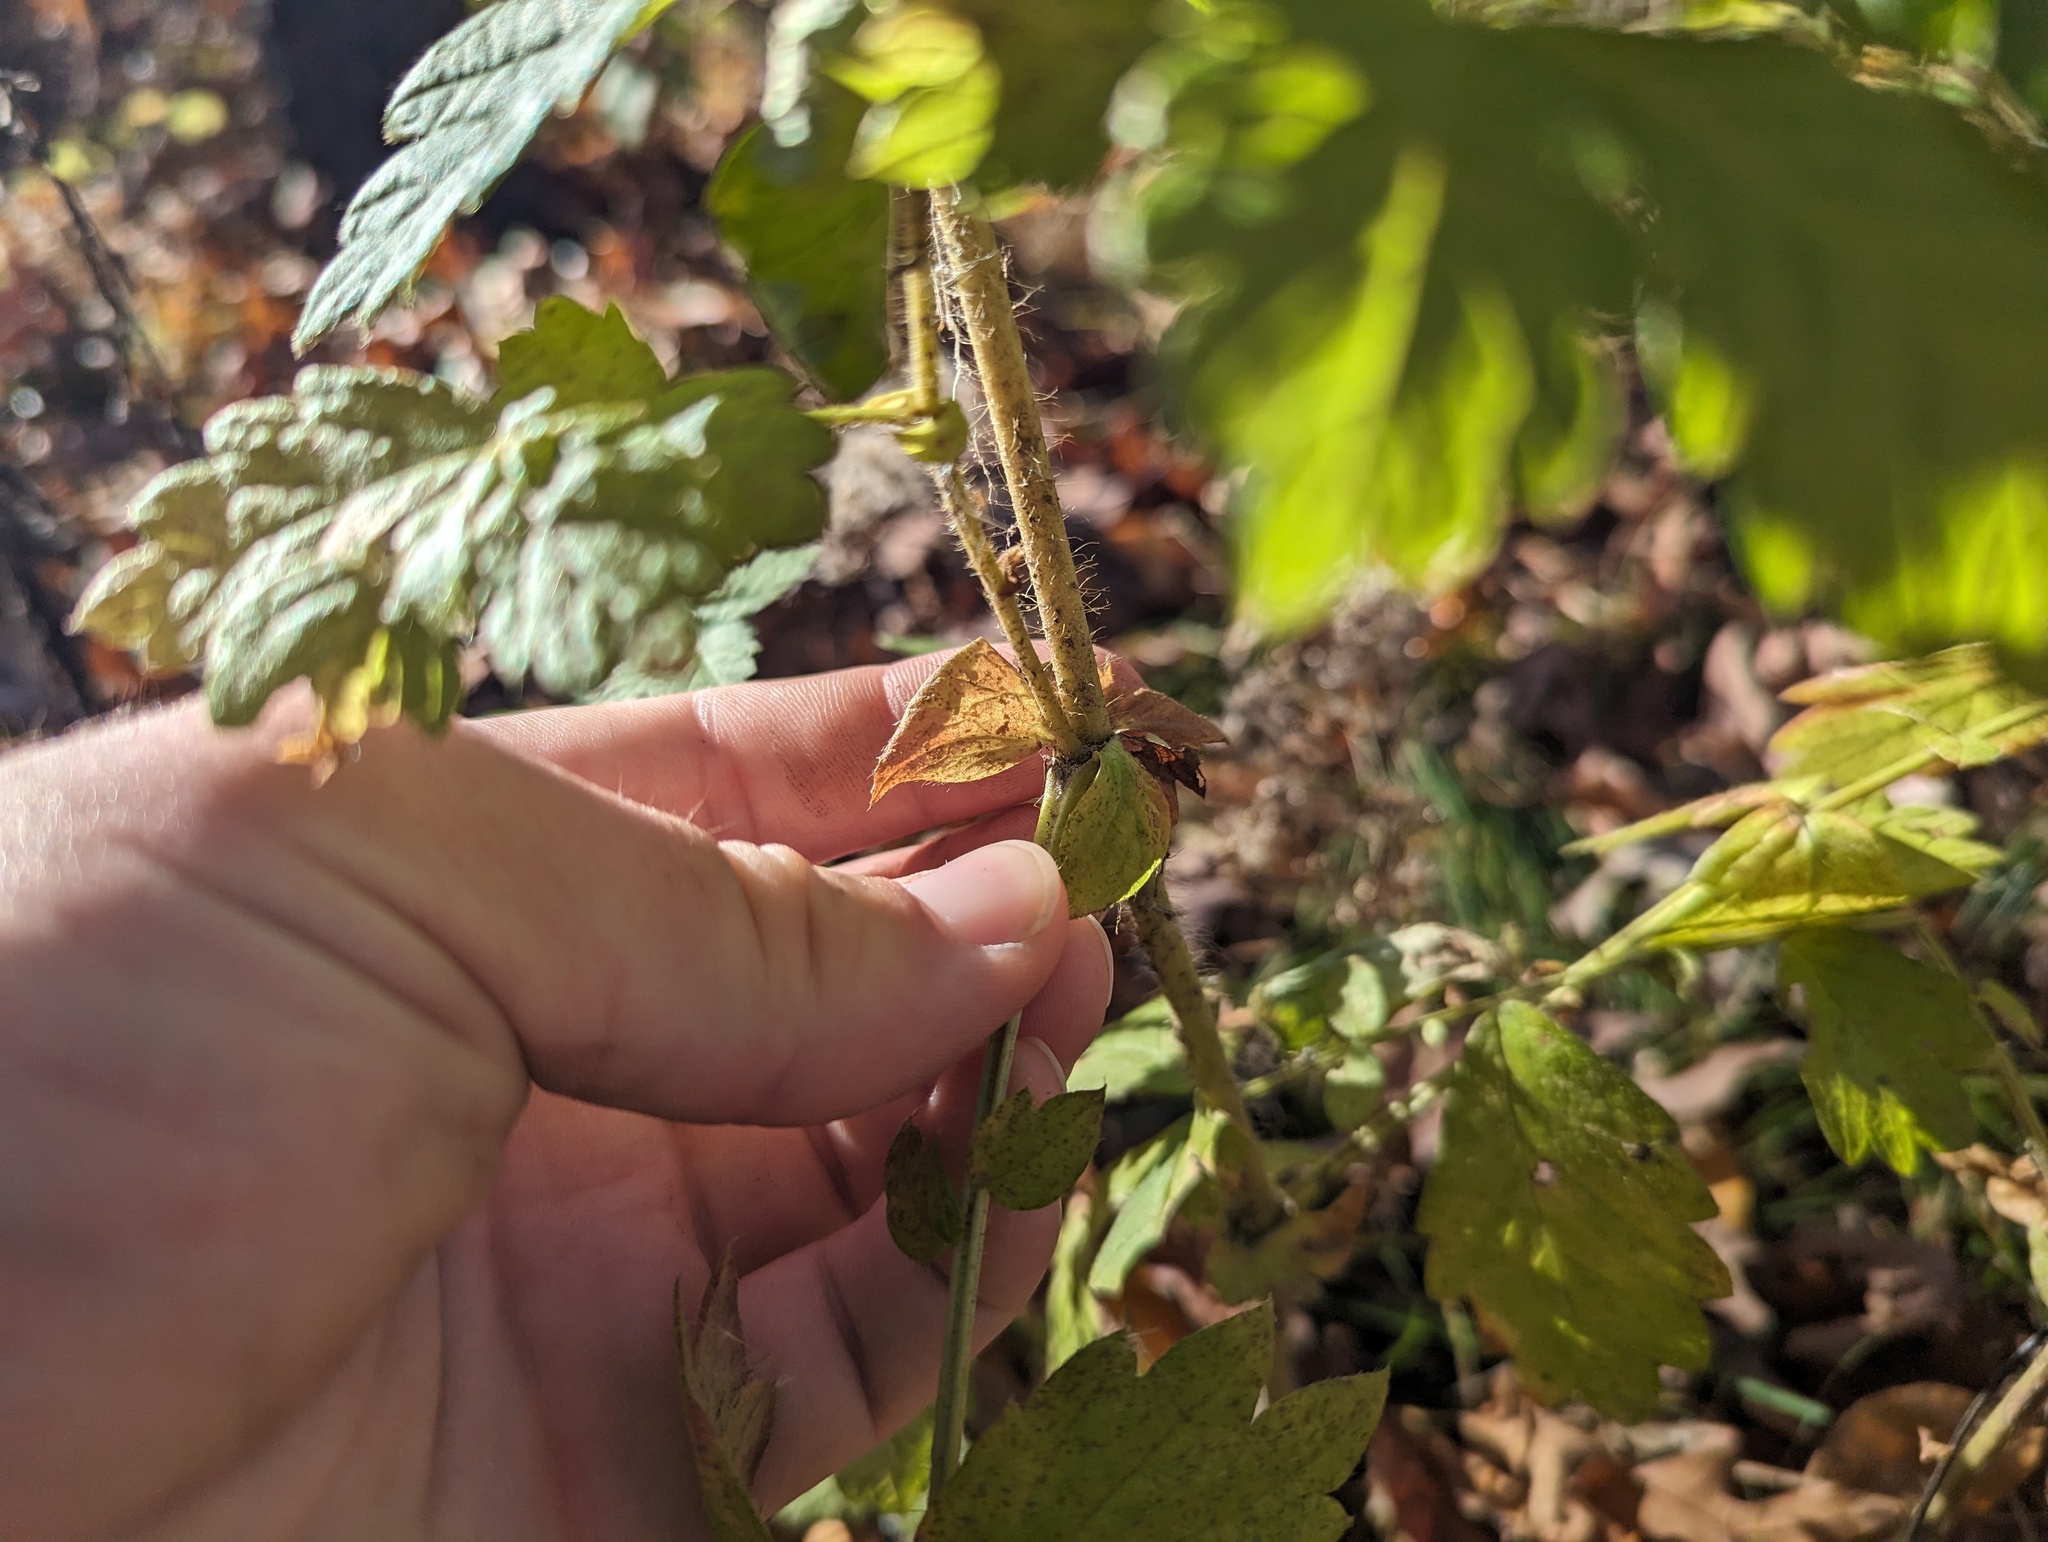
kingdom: Plantae
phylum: Tracheophyta
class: Magnoliopsida
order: Rosales
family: Rosaceae
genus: Agrimonia
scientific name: Agrimonia gryposepala
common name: Common agrimony
